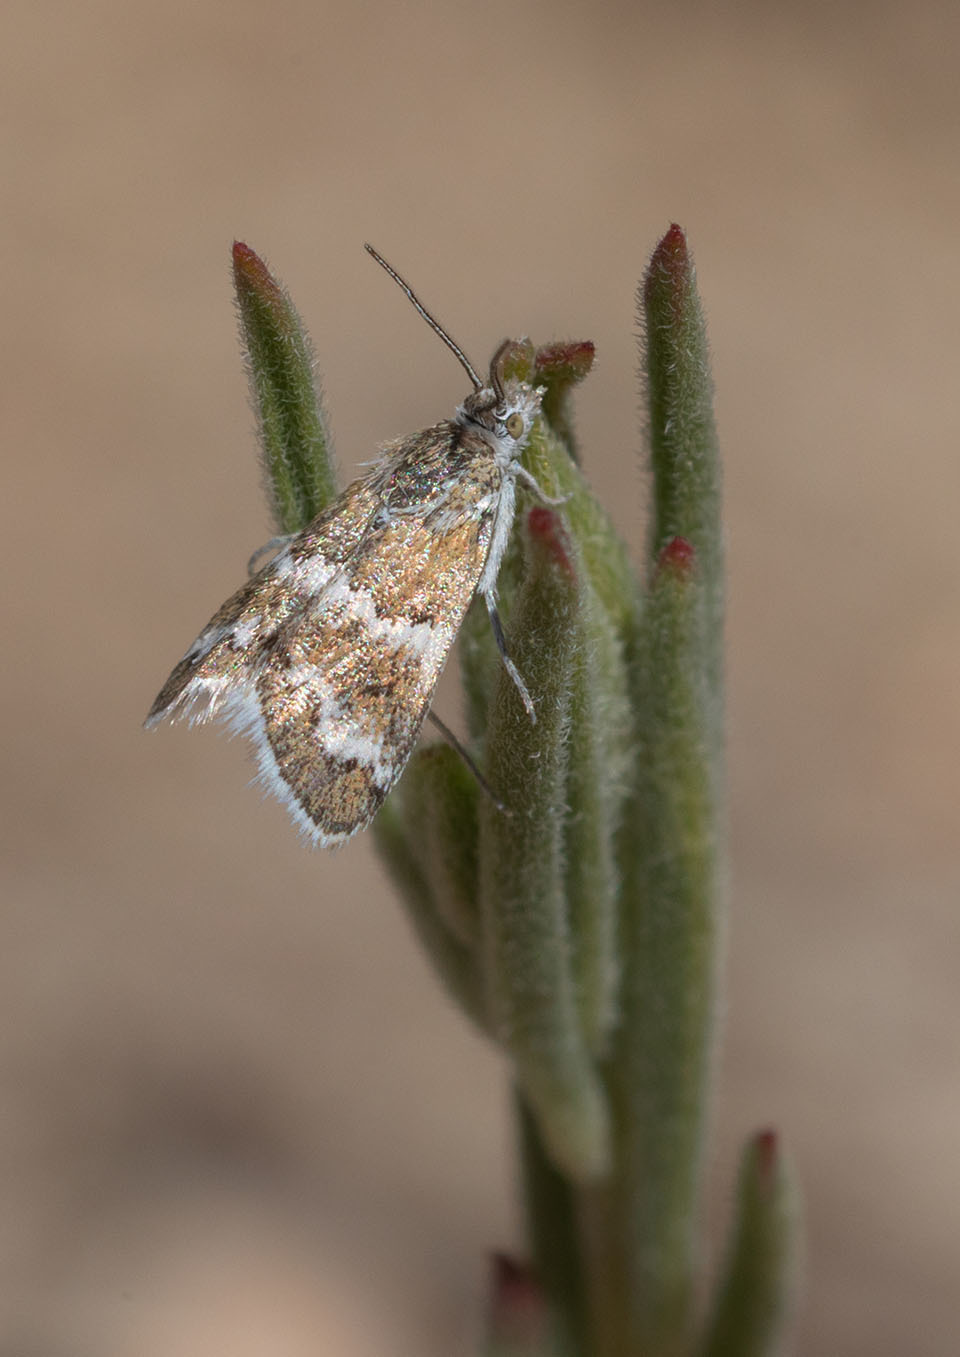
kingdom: Animalia
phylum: Arthropoda
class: Insecta
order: Lepidoptera
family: Crambidae
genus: Nannobotys
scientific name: Nannobotys commortalis
